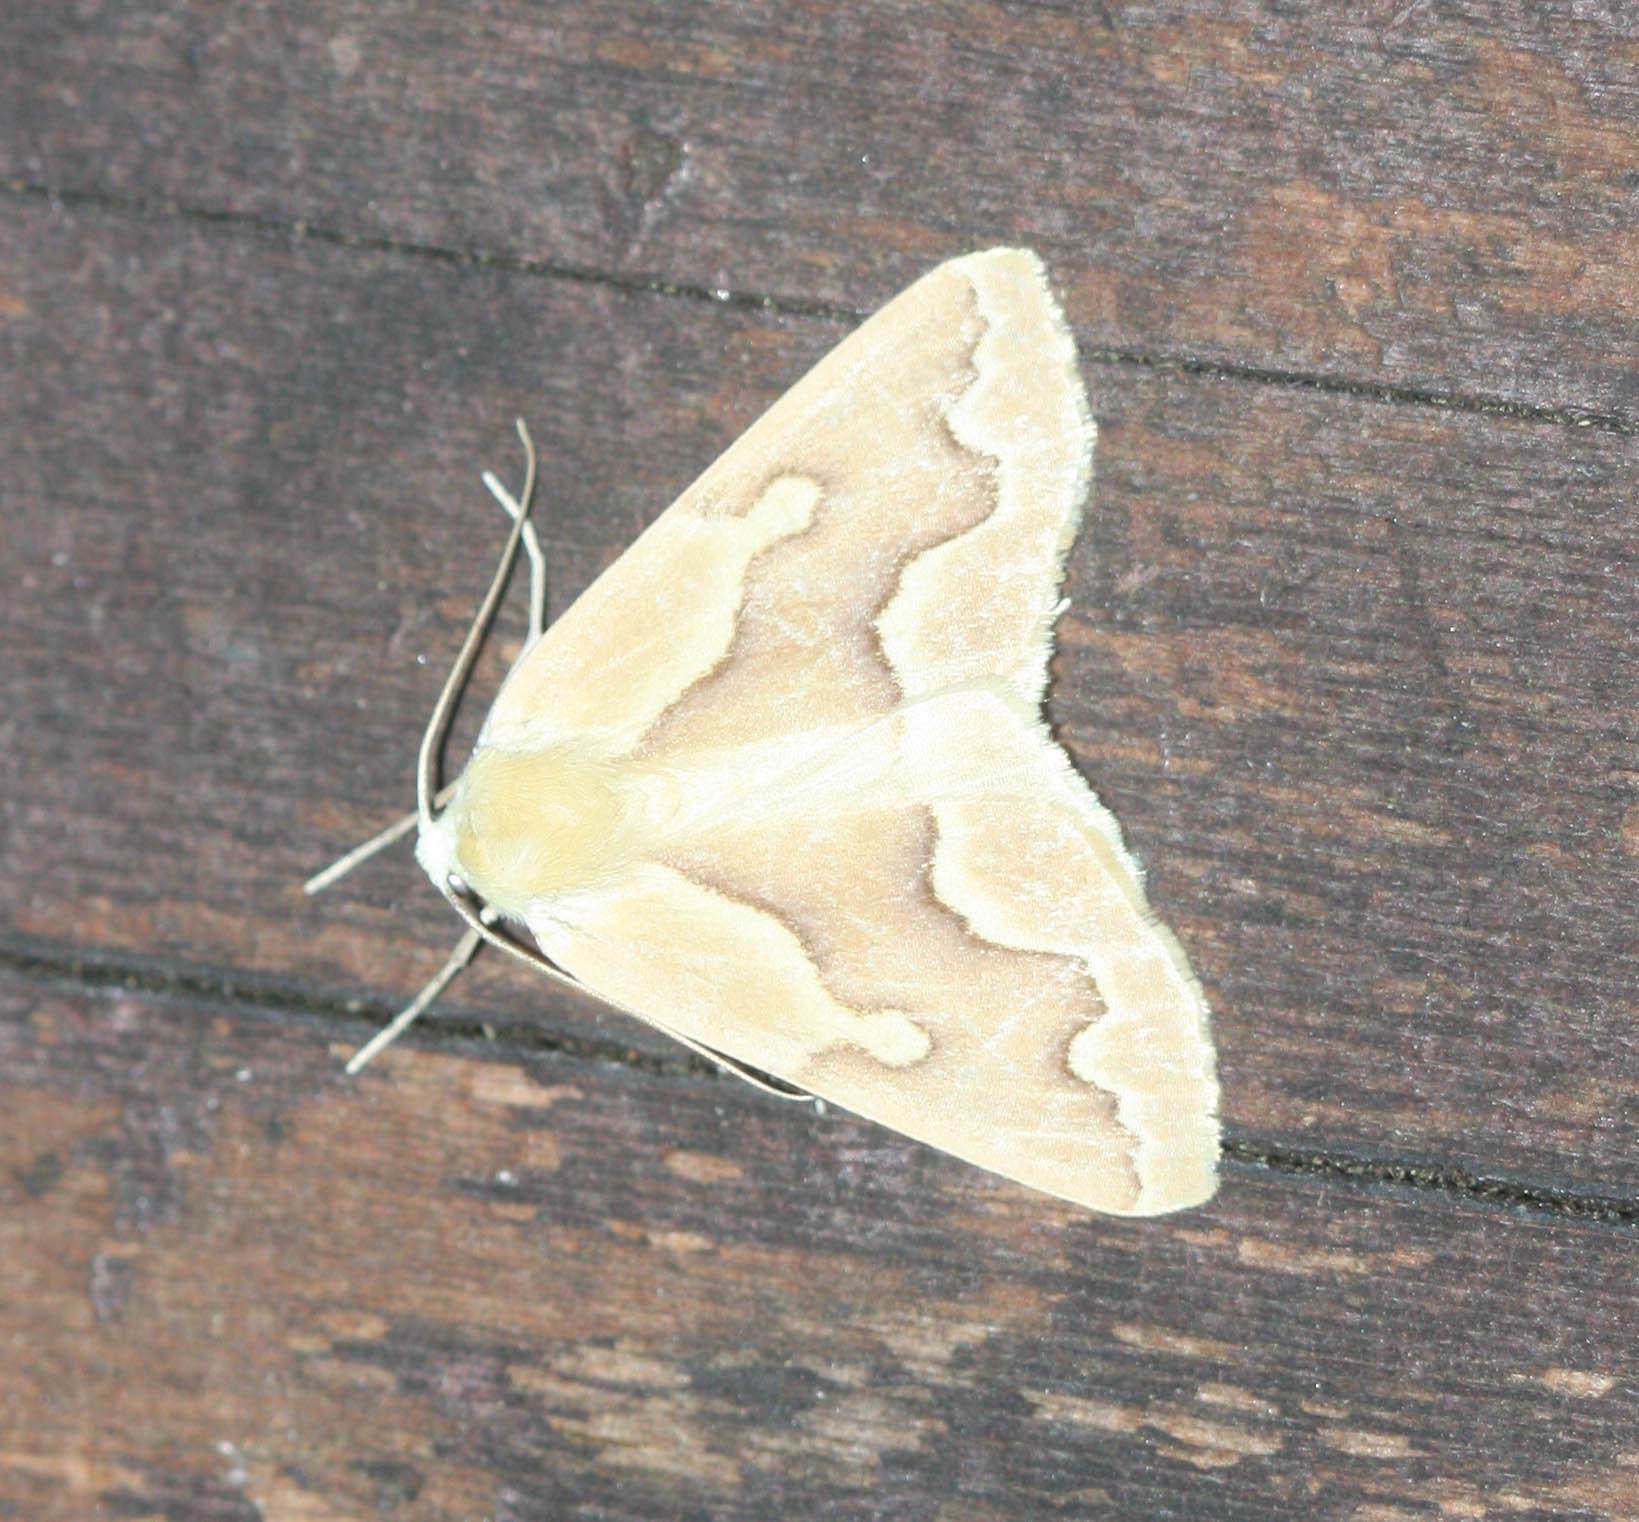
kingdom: Animalia
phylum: Arthropoda
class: Insecta
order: Lepidoptera
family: Geometridae
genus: Sabulodes
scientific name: Sabulodes edwardsata
